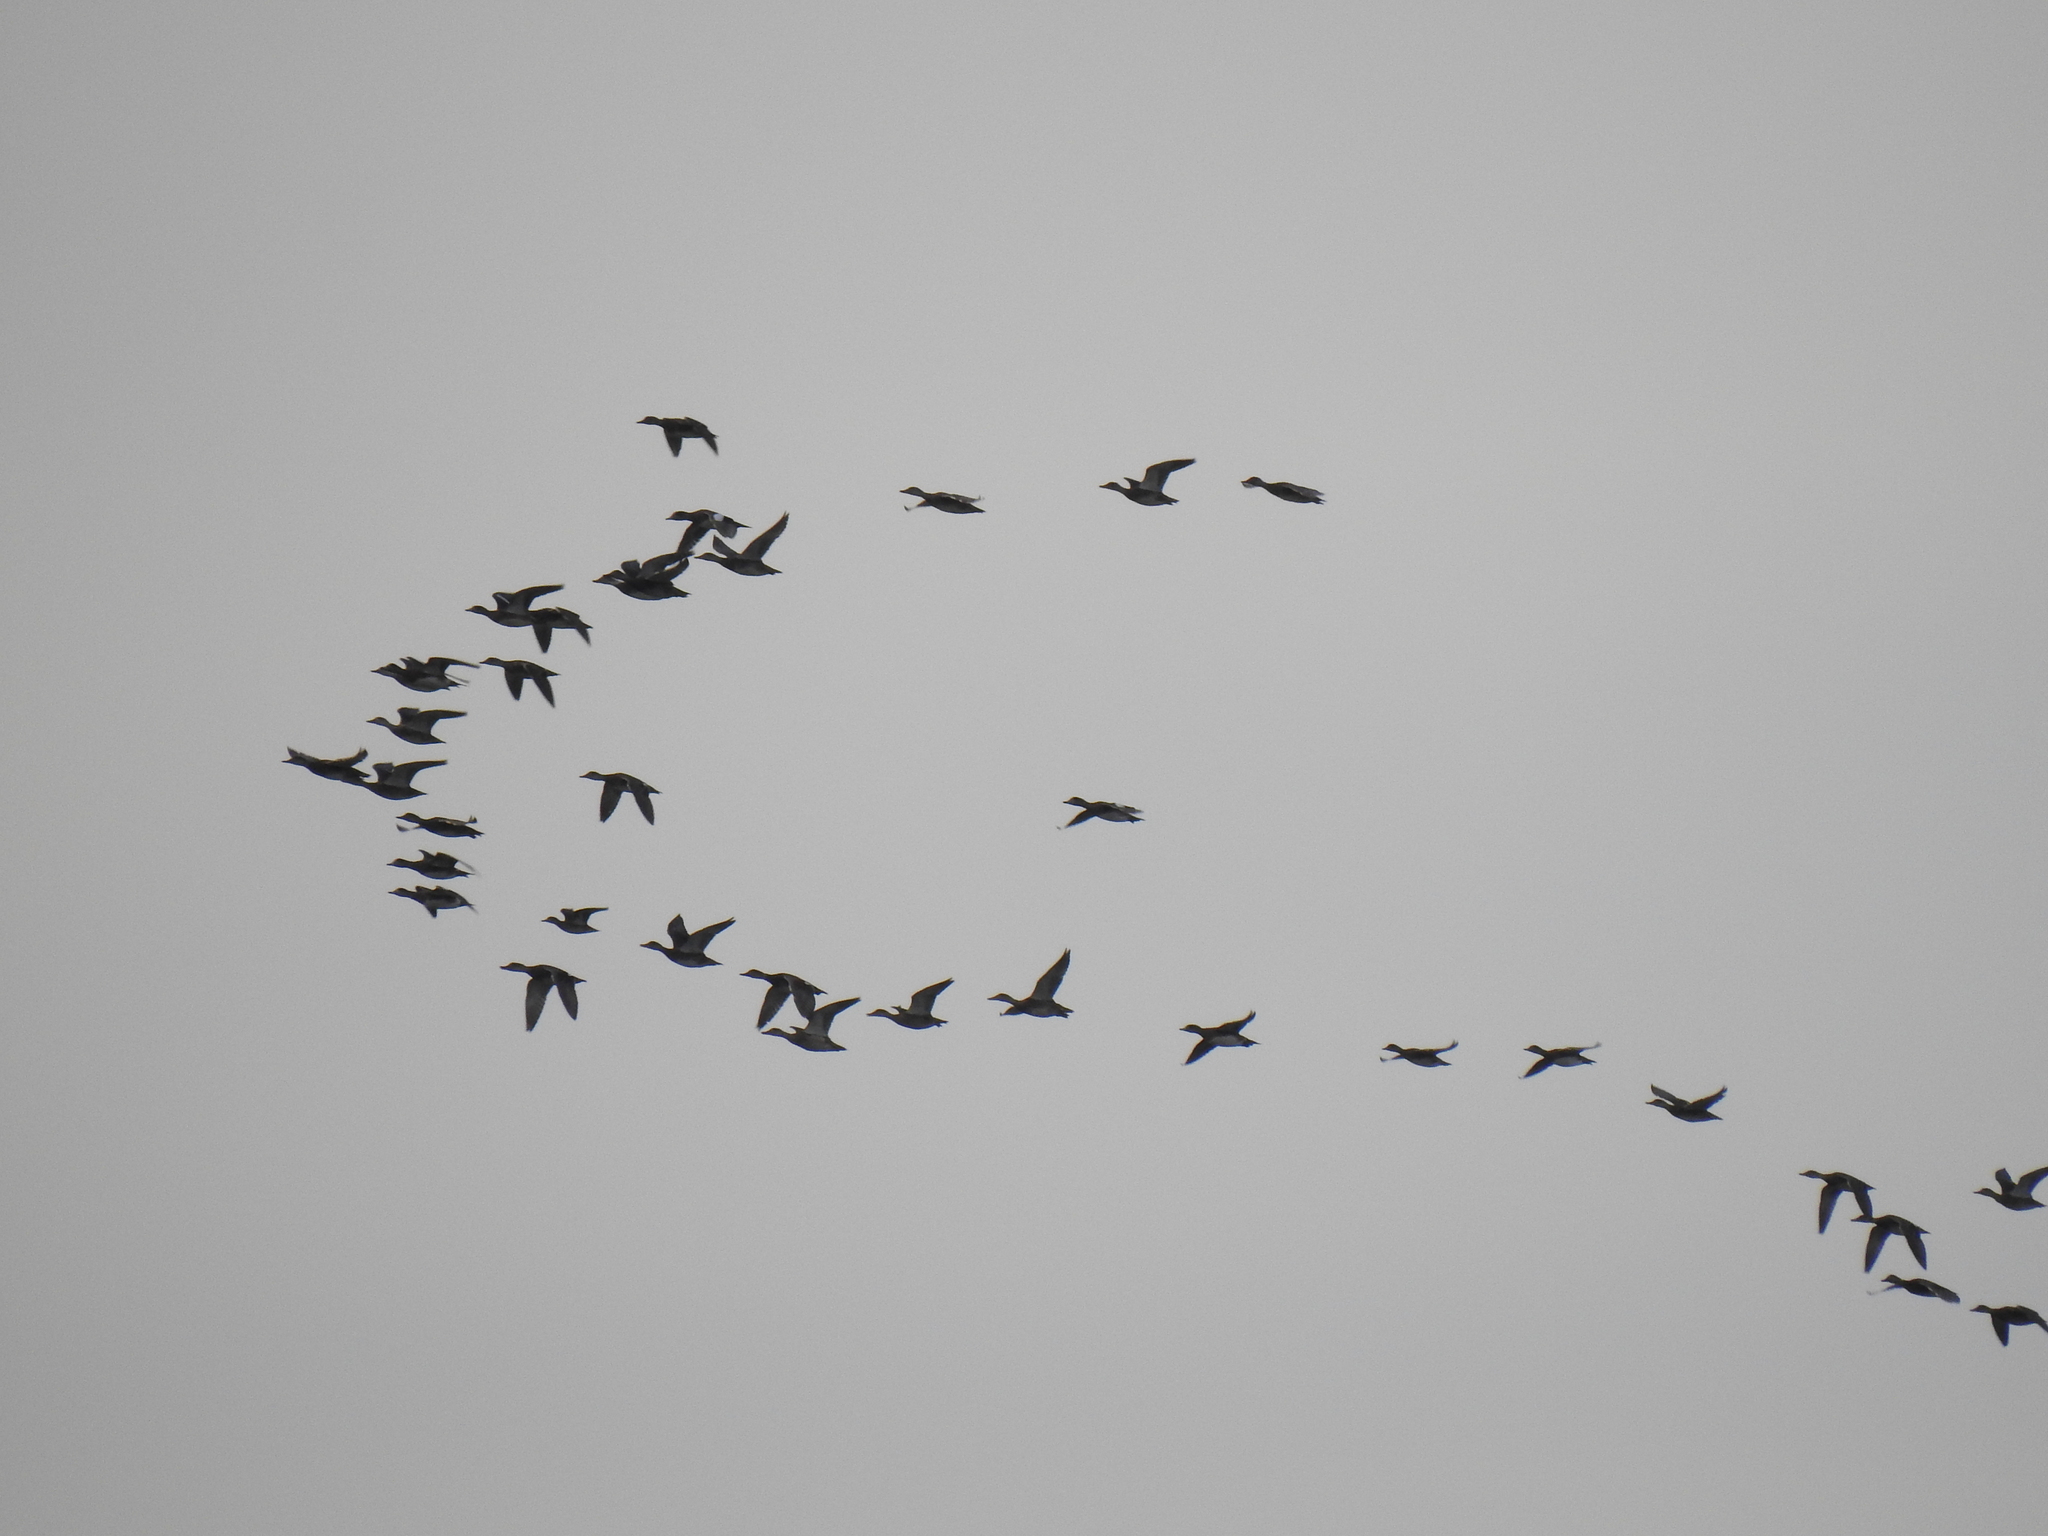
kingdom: Animalia
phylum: Chordata
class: Aves
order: Anseriformes
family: Anatidae
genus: Mareca
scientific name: Mareca strepera
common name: Gadwall
